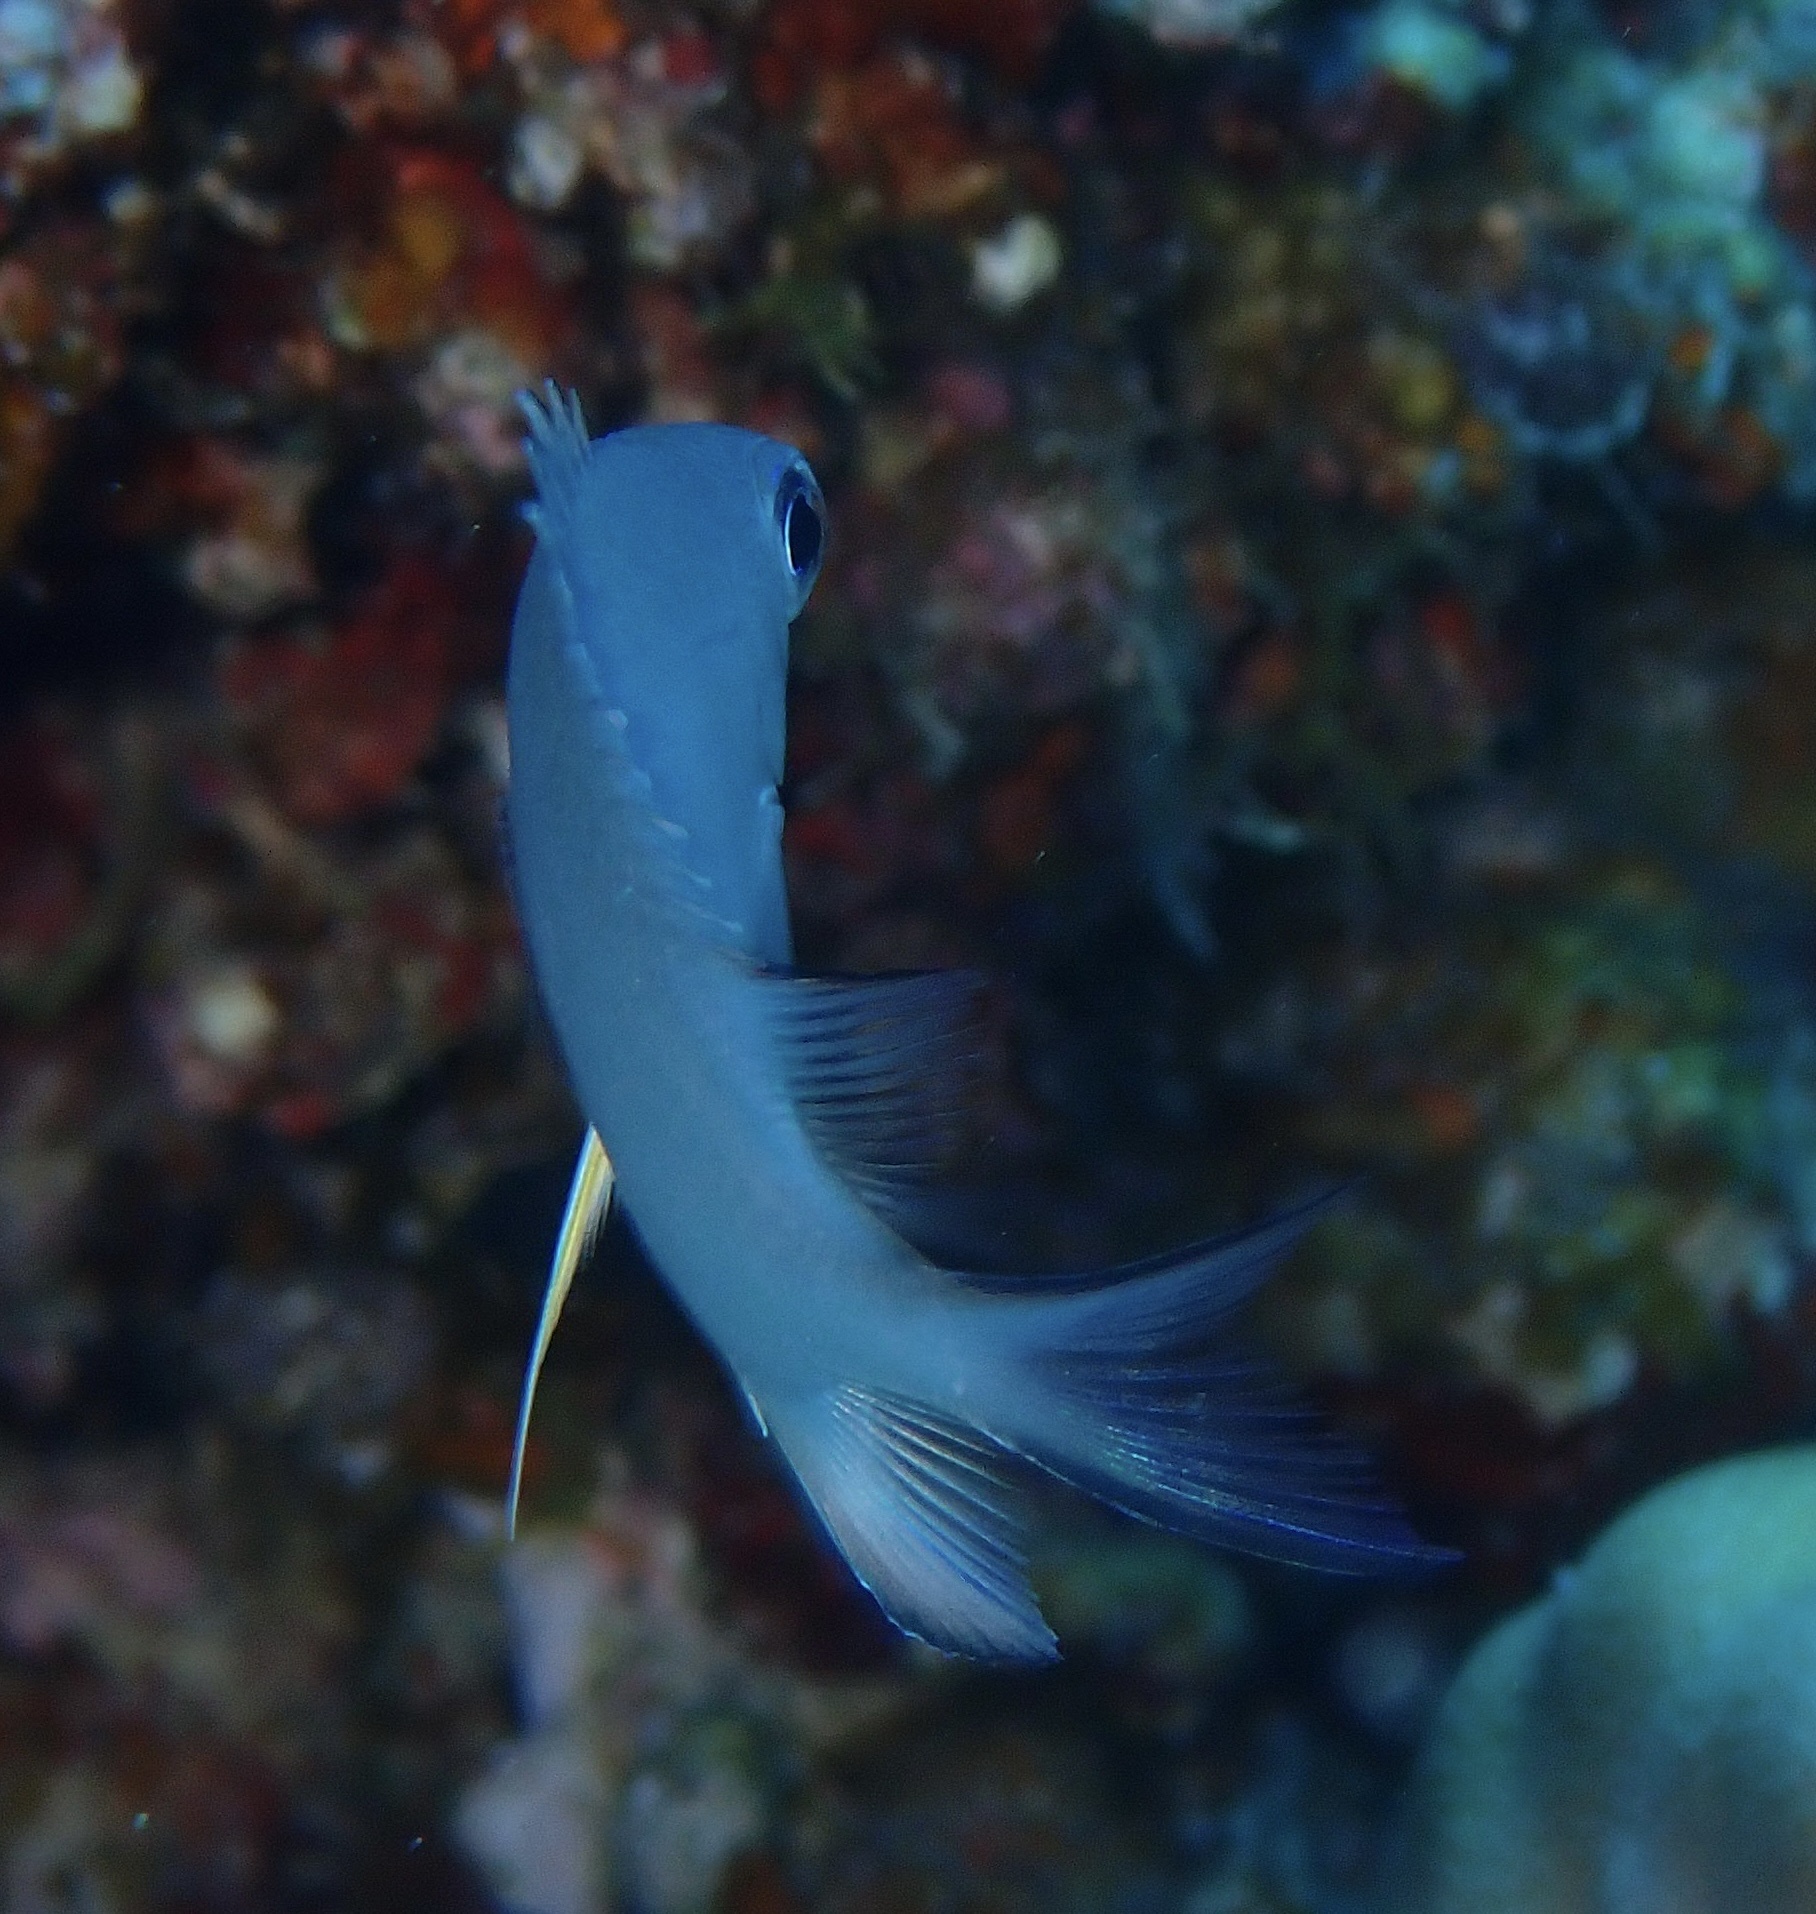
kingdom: Animalia
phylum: Chordata
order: Perciformes
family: Pomacentridae
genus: Amblyglyphidodon
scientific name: Amblyglyphidodon indicus
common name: Maldives damselfish
